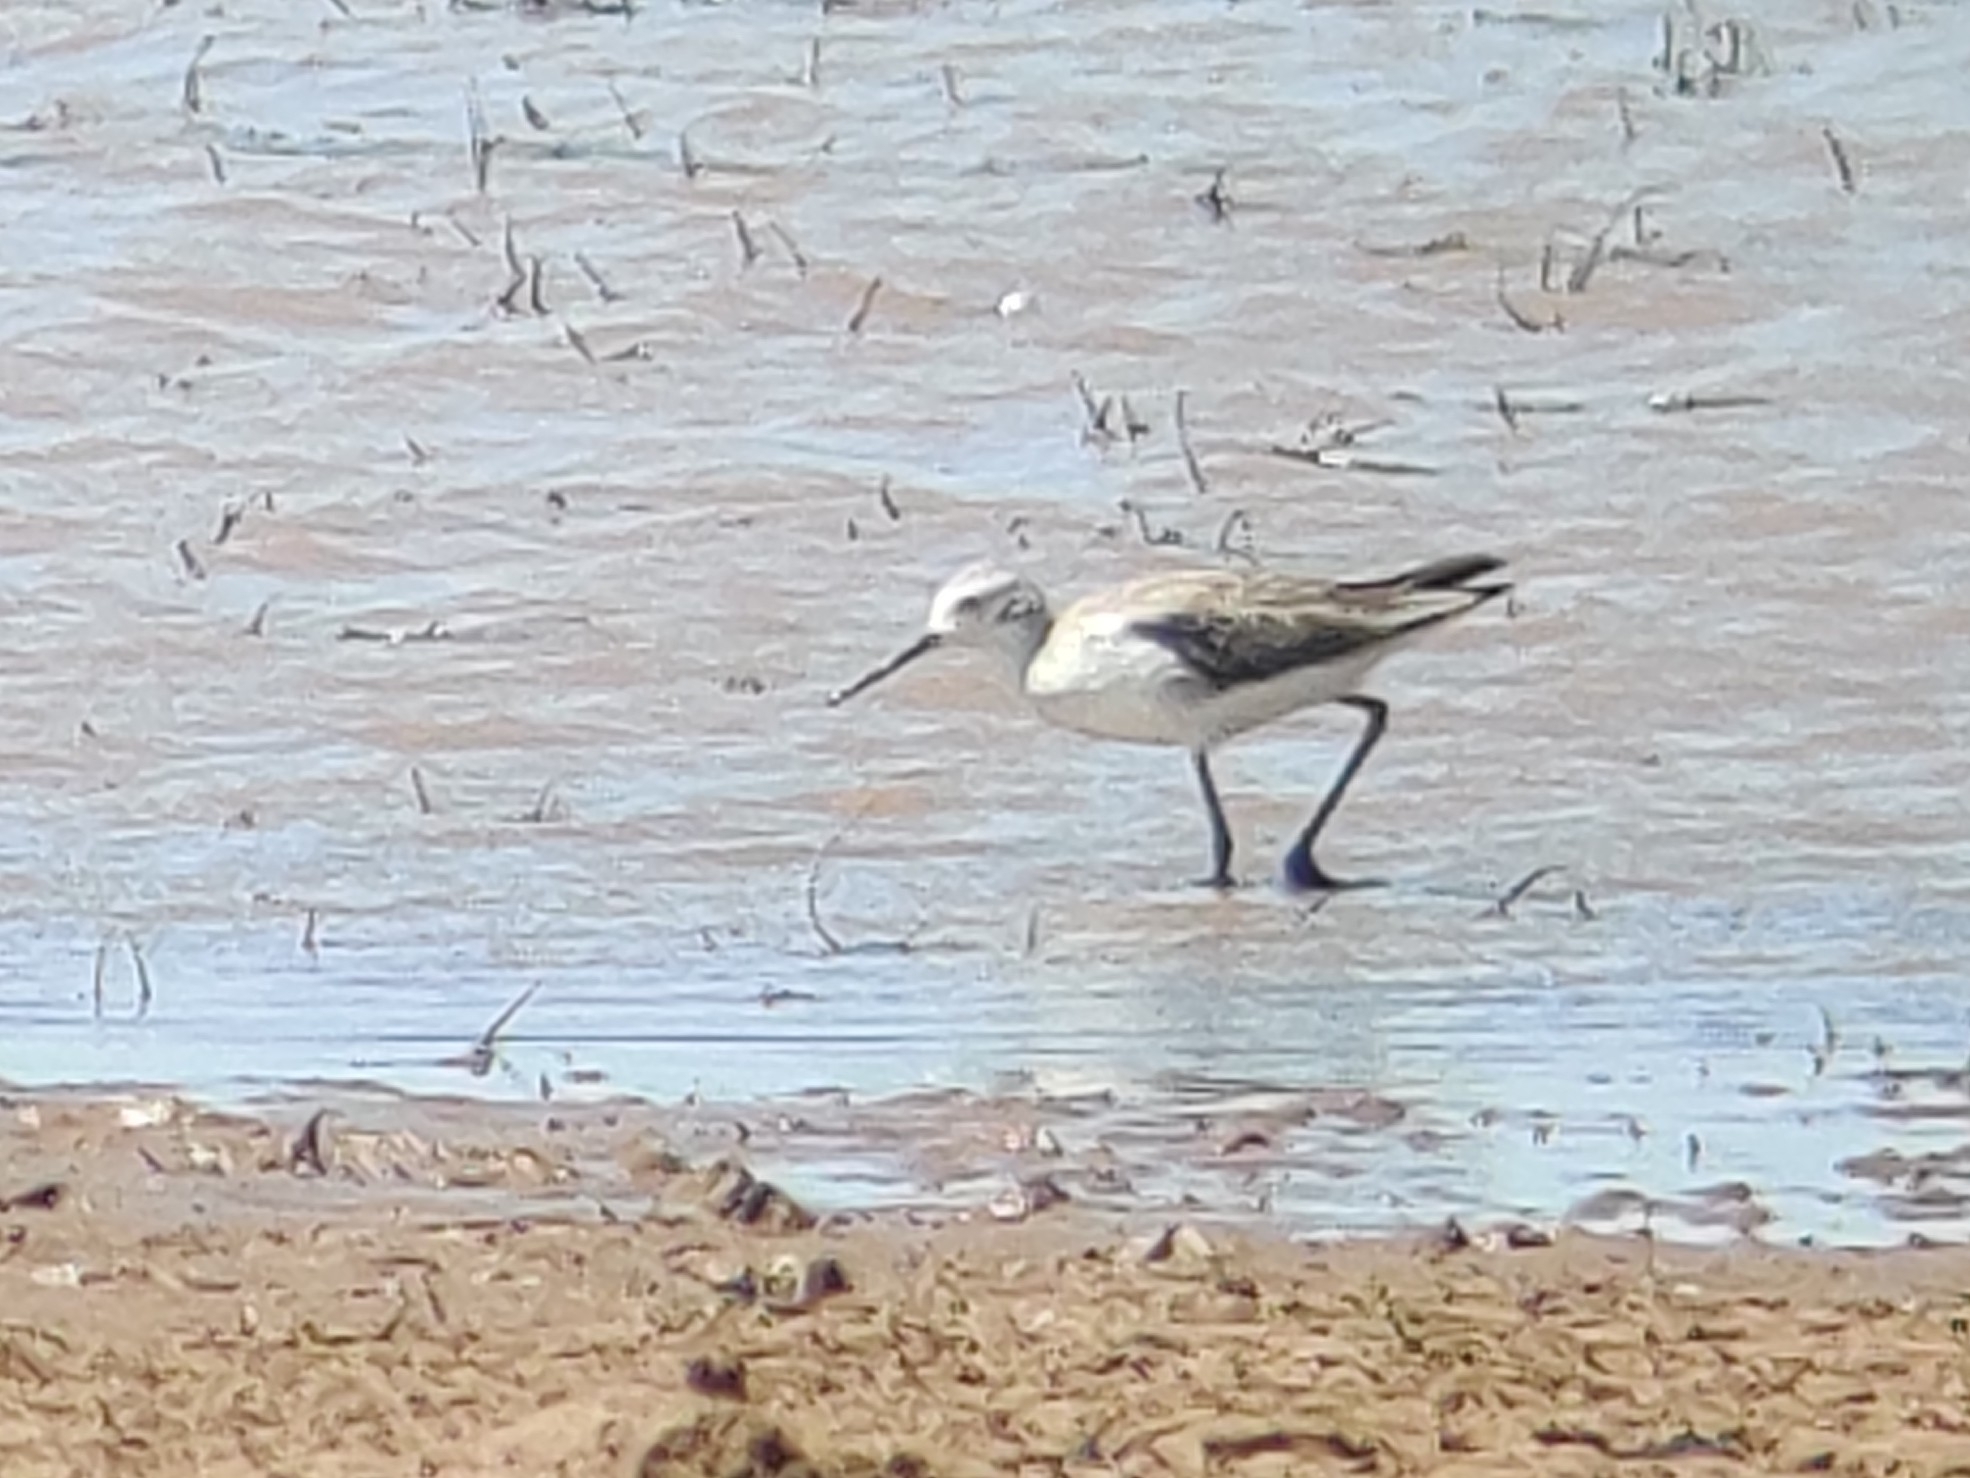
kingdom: Animalia
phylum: Chordata
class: Aves
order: Charadriiformes
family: Scolopacidae
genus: Tringa
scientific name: Tringa stagnatilis
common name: Marsh sandpiper
